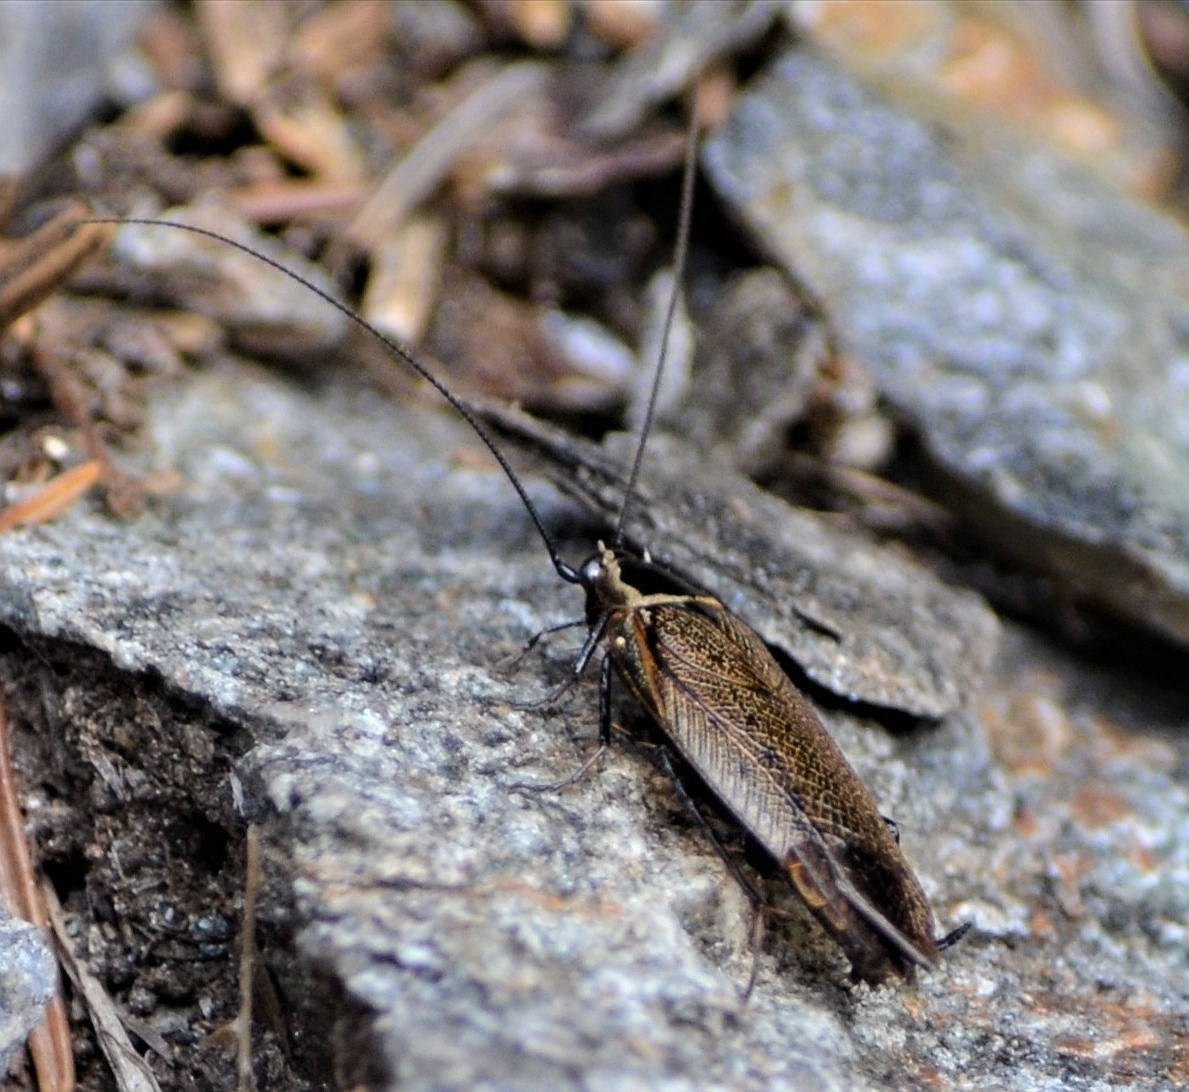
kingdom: Animalia
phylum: Arthropoda
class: Insecta
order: Blattodea
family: Ectobiidae
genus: Ectobius
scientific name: Ectobius sylvestris
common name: Forest cockroach
